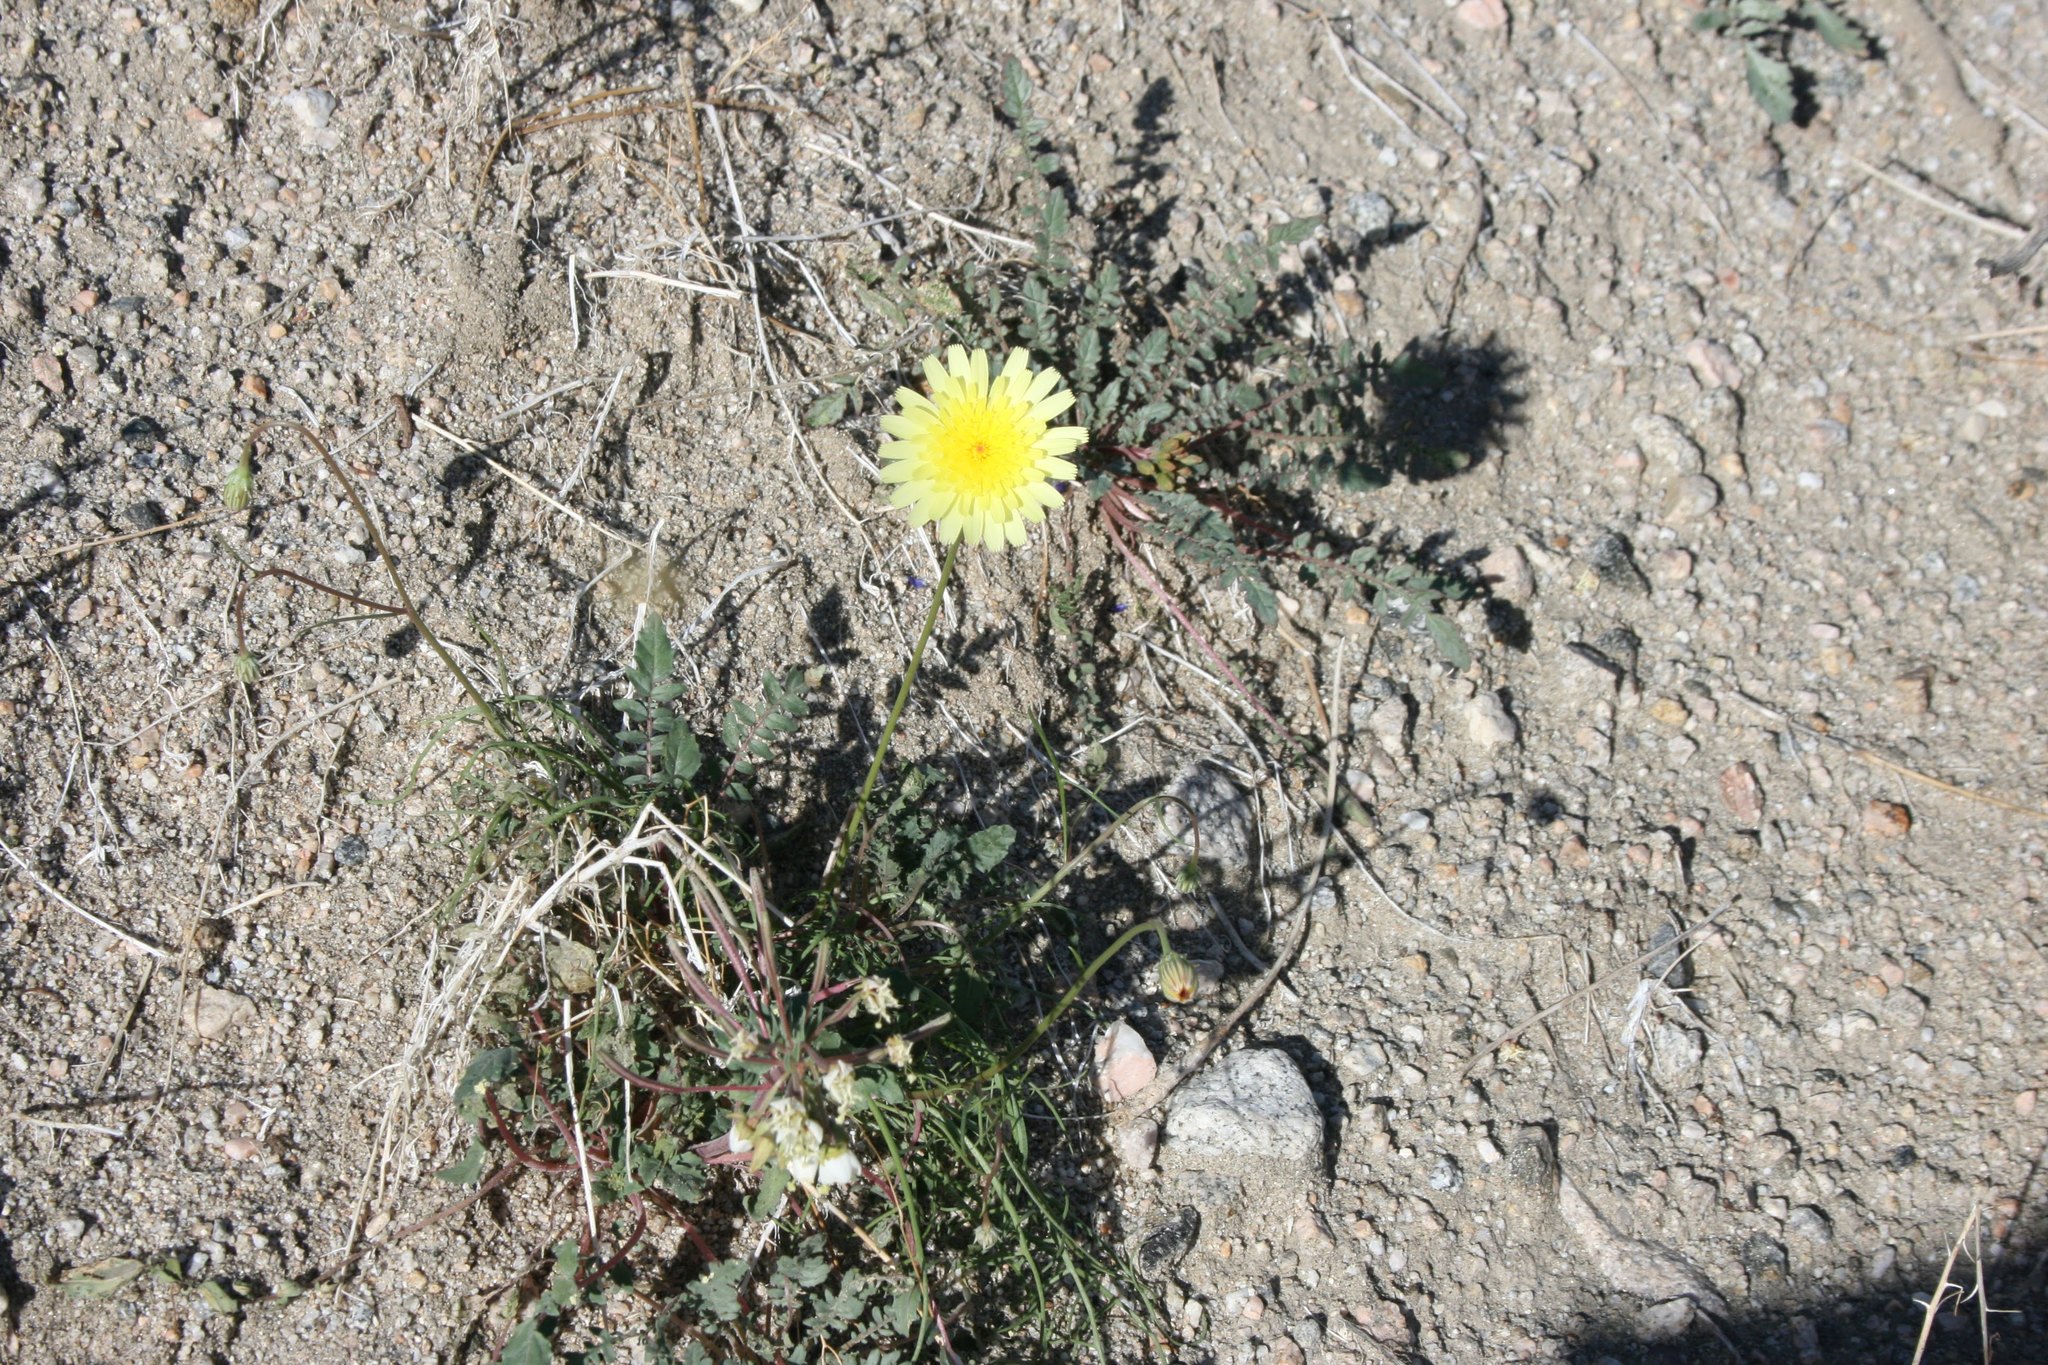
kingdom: Plantae
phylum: Tracheophyta
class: Magnoliopsida
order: Asterales
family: Asteraceae
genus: Malacothrix
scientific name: Malacothrix glabrata
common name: Smooth desert-dandelion
